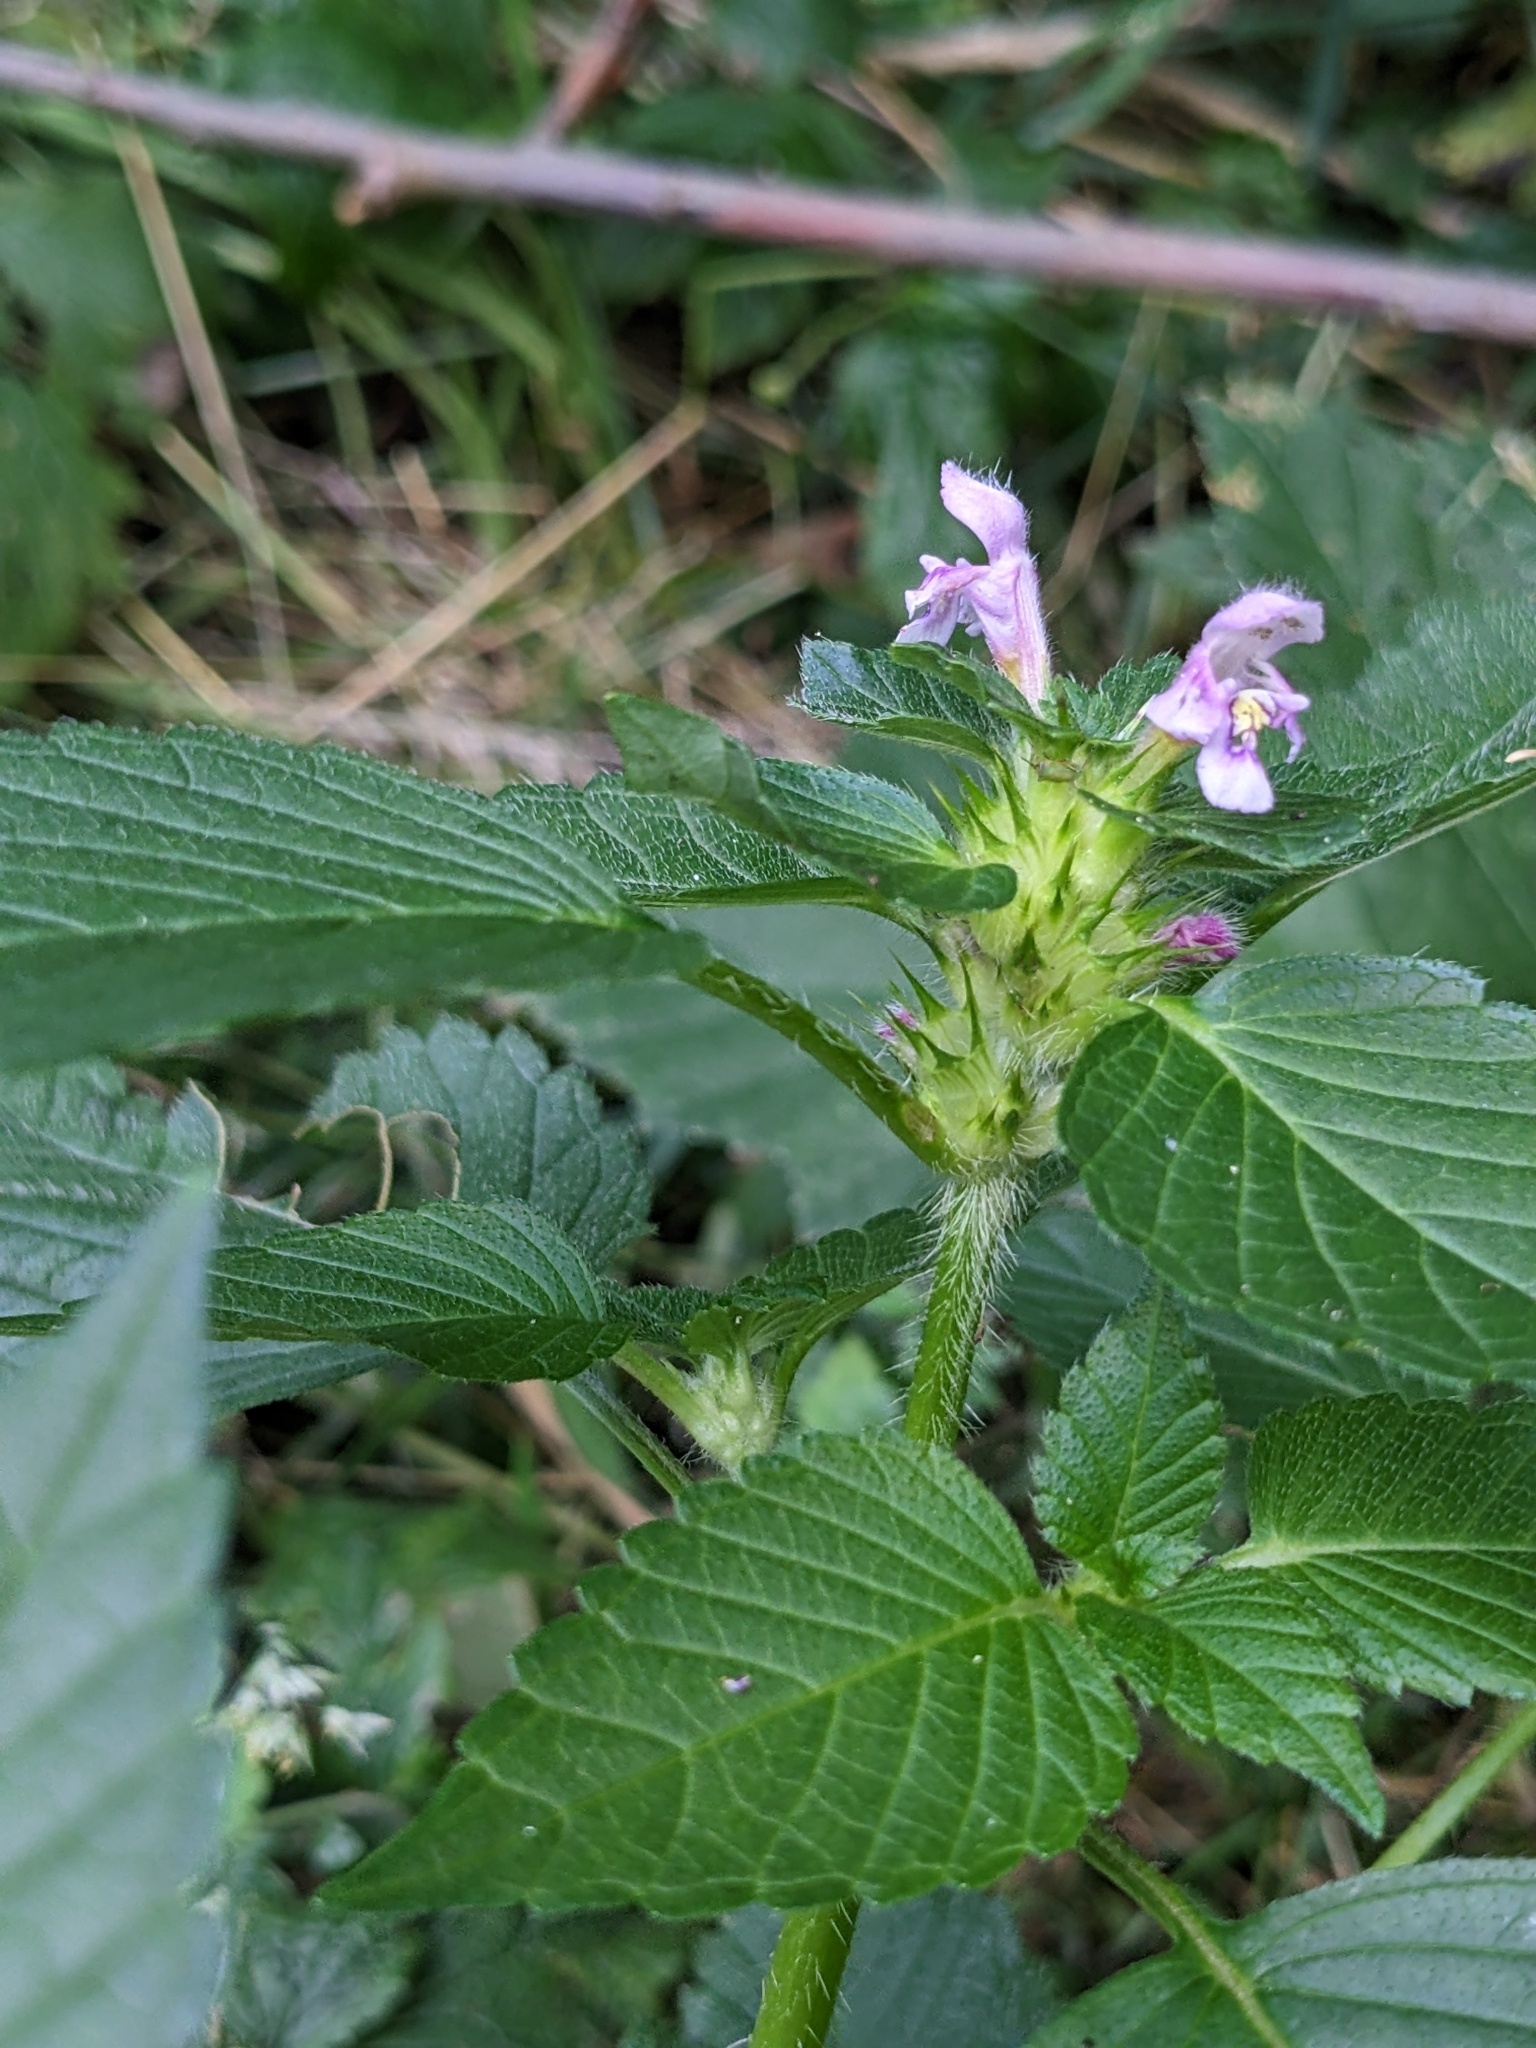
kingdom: Plantae
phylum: Tracheophyta
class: Magnoliopsida
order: Lamiales
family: Lamiaceae
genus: Galeopsis
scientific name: Galeopsis tetrahit
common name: Common hemp-nettle
